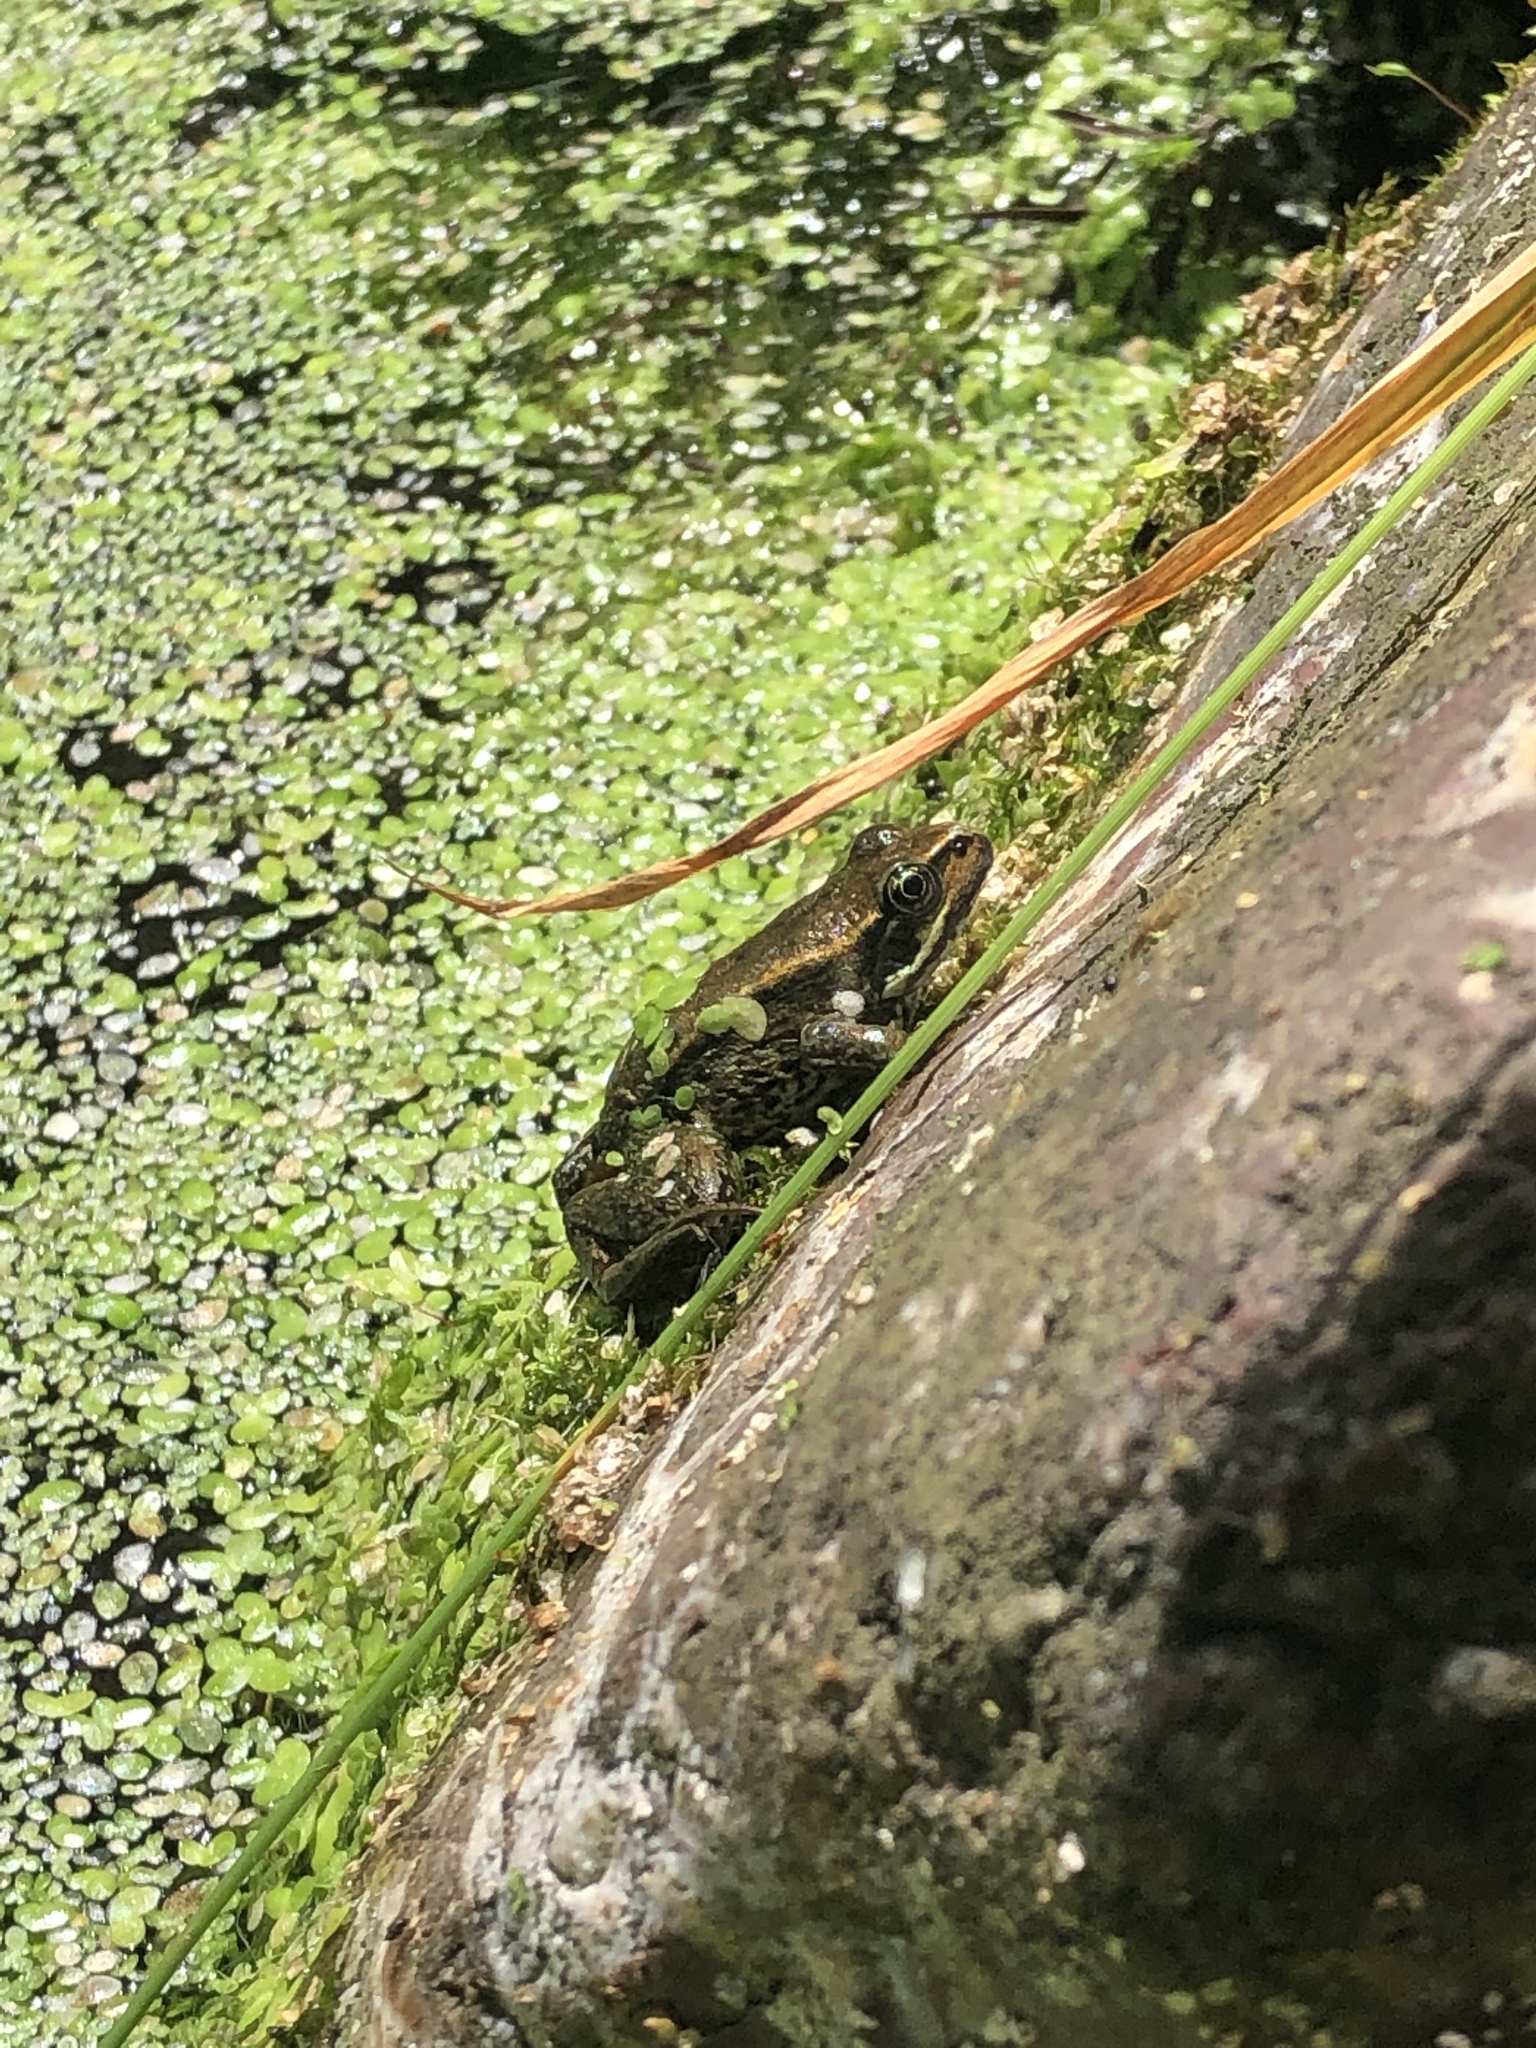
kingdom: Animalia
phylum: Chordata
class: Amphibia
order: Anura
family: Ranidae
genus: Rana
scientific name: Rana aurora
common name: Red-legged frog
